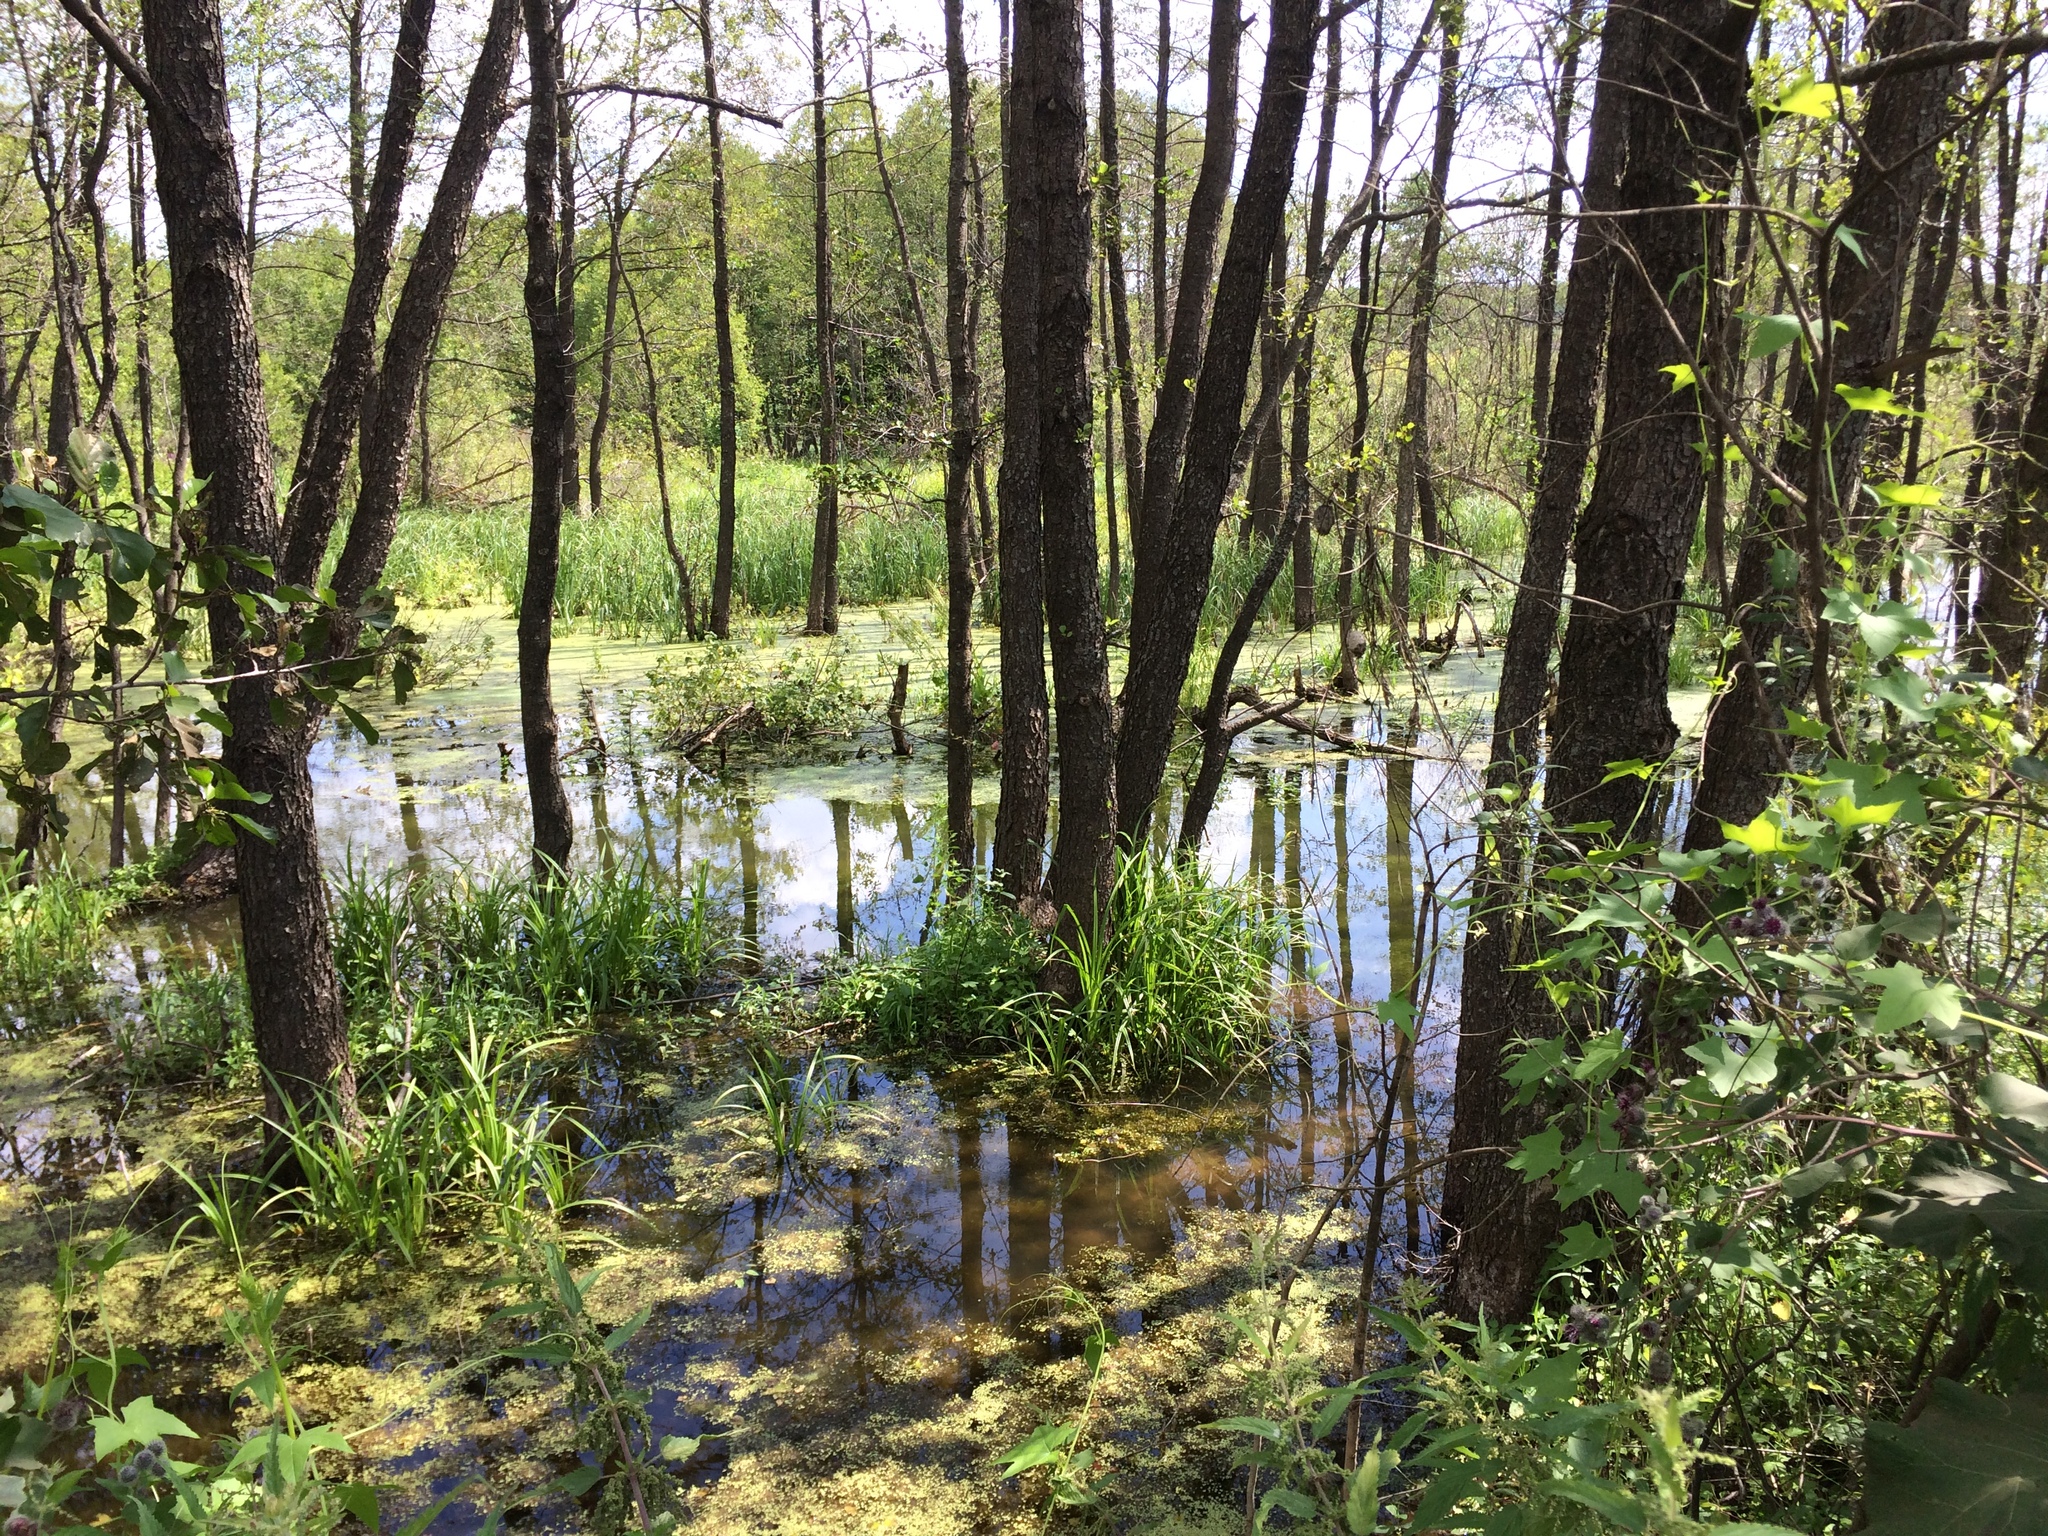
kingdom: Plantae
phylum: Tracheophyta
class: Magnoliopsida
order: Fagales
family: Betulaceae
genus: Alnus
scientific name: Alnus glutinosa
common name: Black alder
